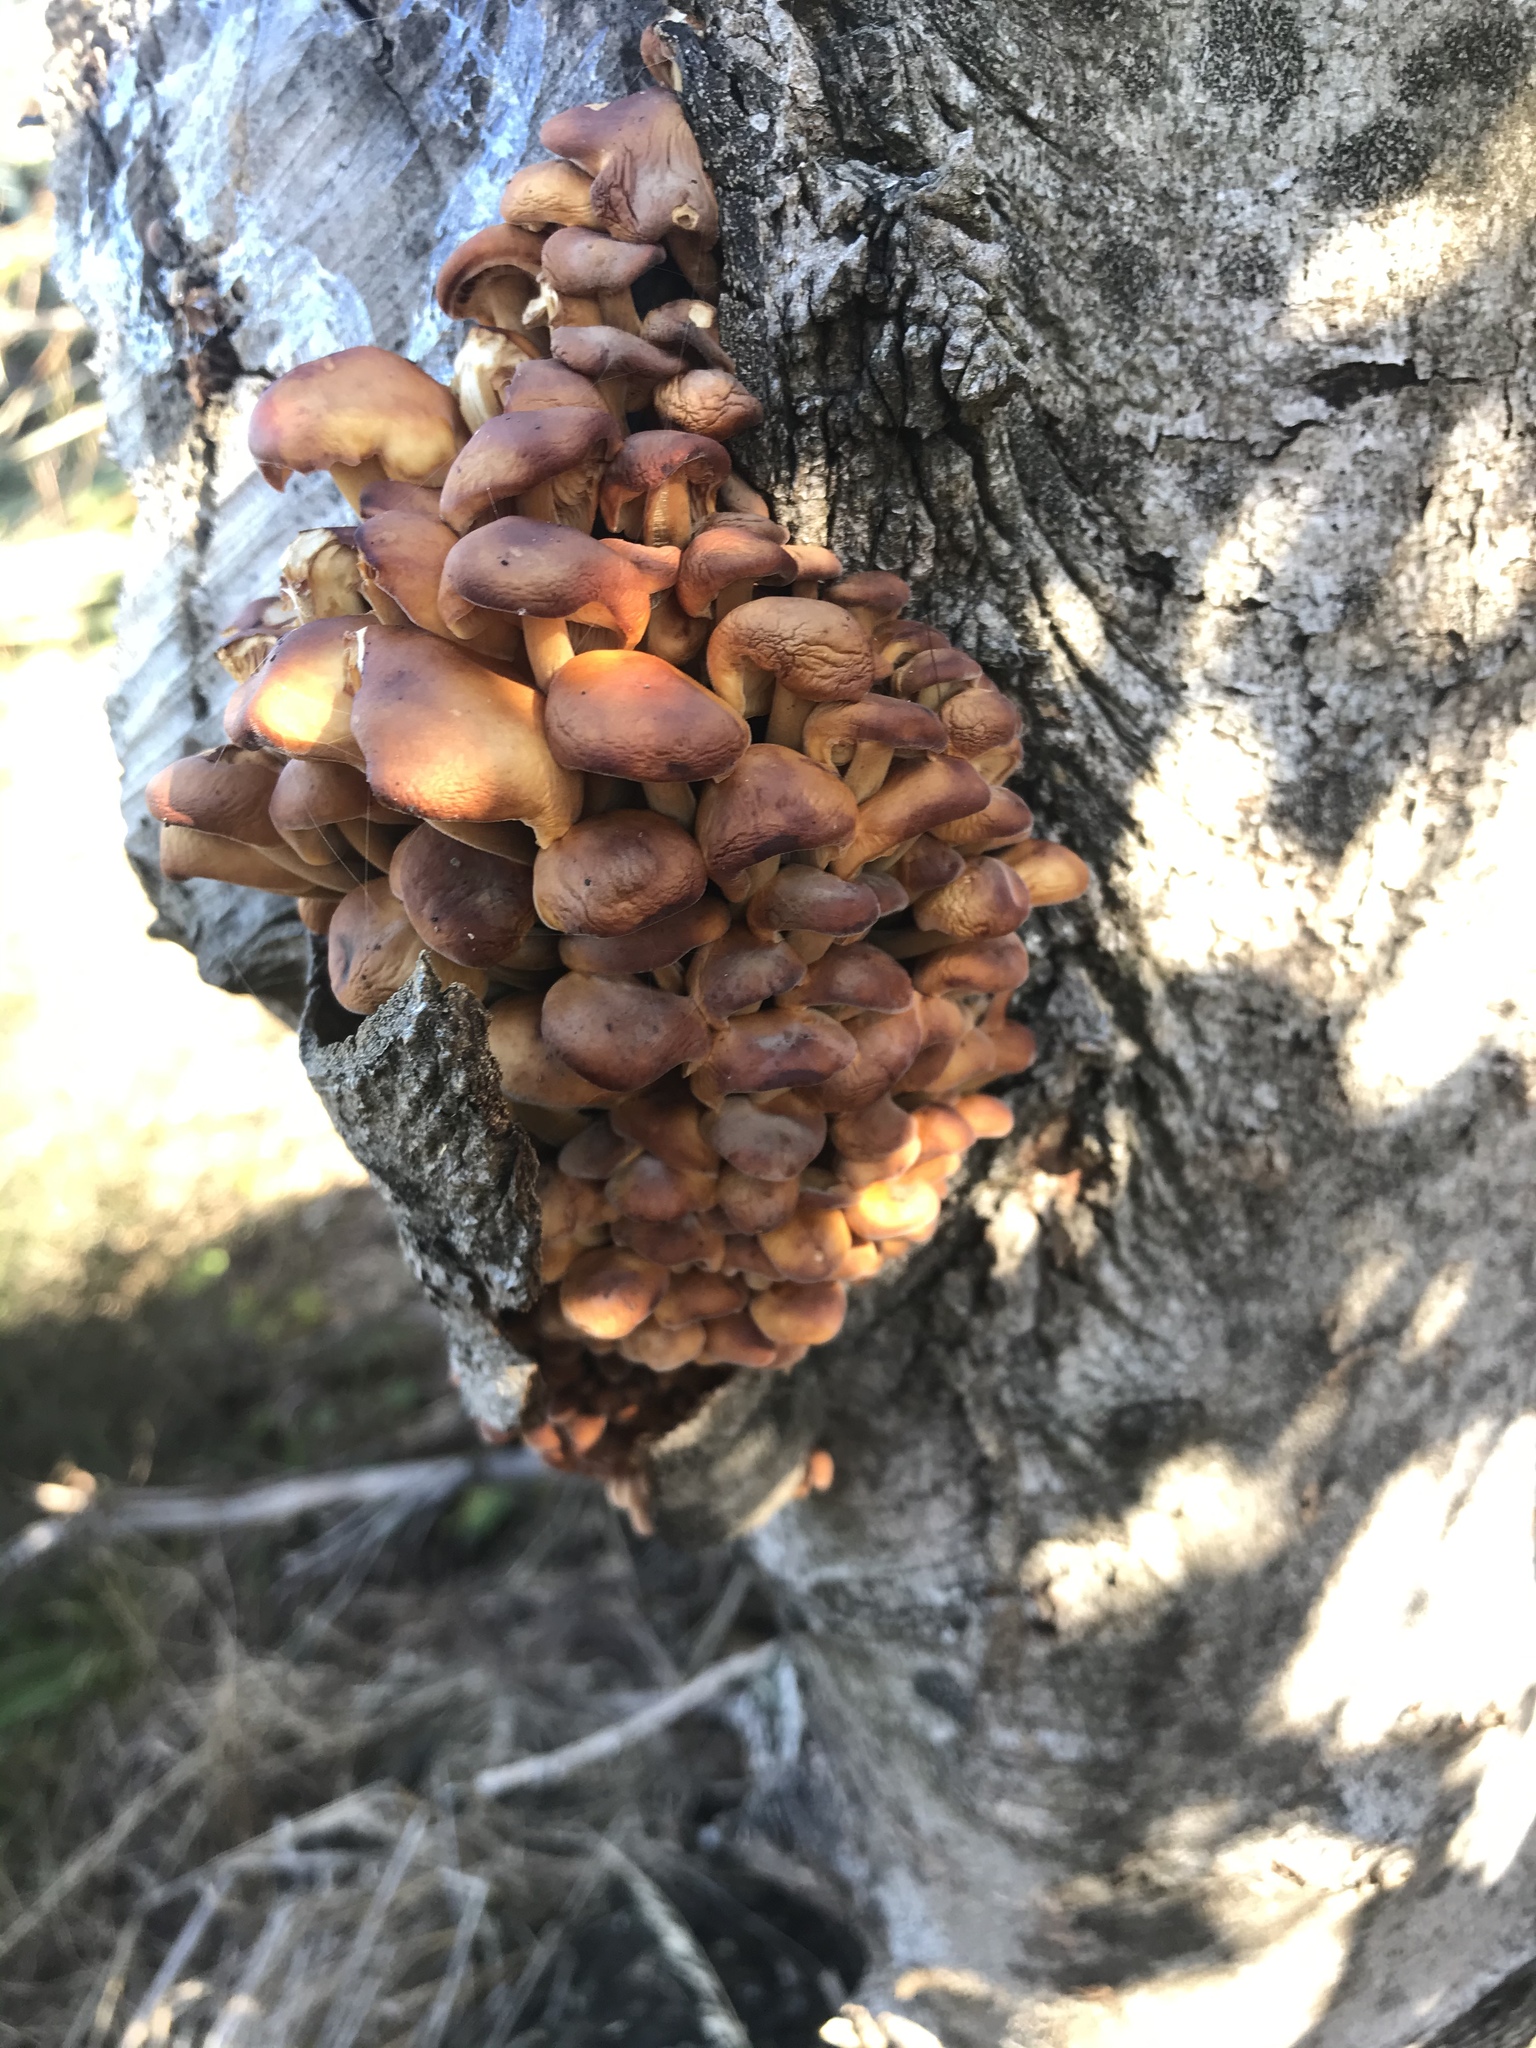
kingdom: Fungi
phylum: Basidiomycota
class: Agaricomycetes
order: Agaricales
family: Hymenogastraceae
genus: Gymnopilus
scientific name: Gymnopilus junonius
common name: Spectacular rustgill
